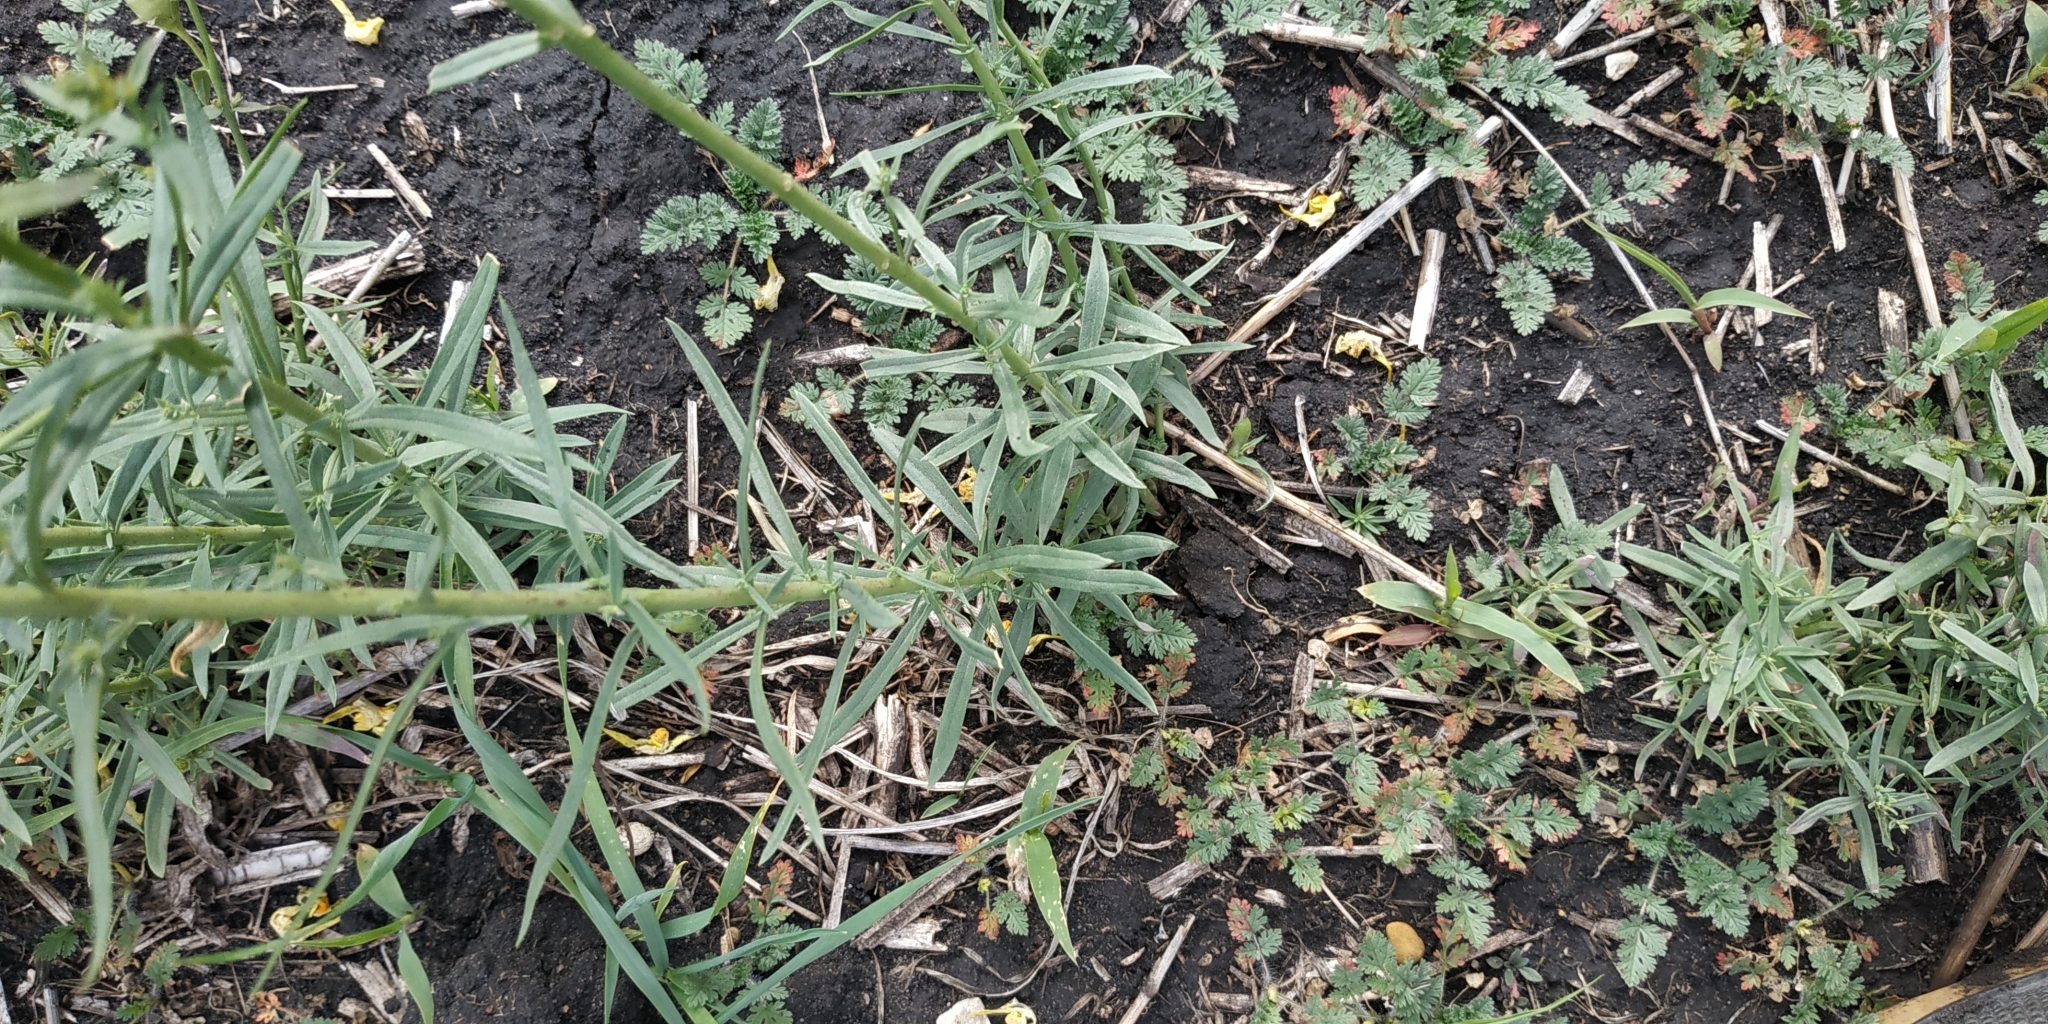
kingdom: Plantae
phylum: Tracheophyta
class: Magnoliopsida
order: Lamiales
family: Plantaginaceae
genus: Linaria
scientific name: Linaria vulgaris
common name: Butter and eggs
